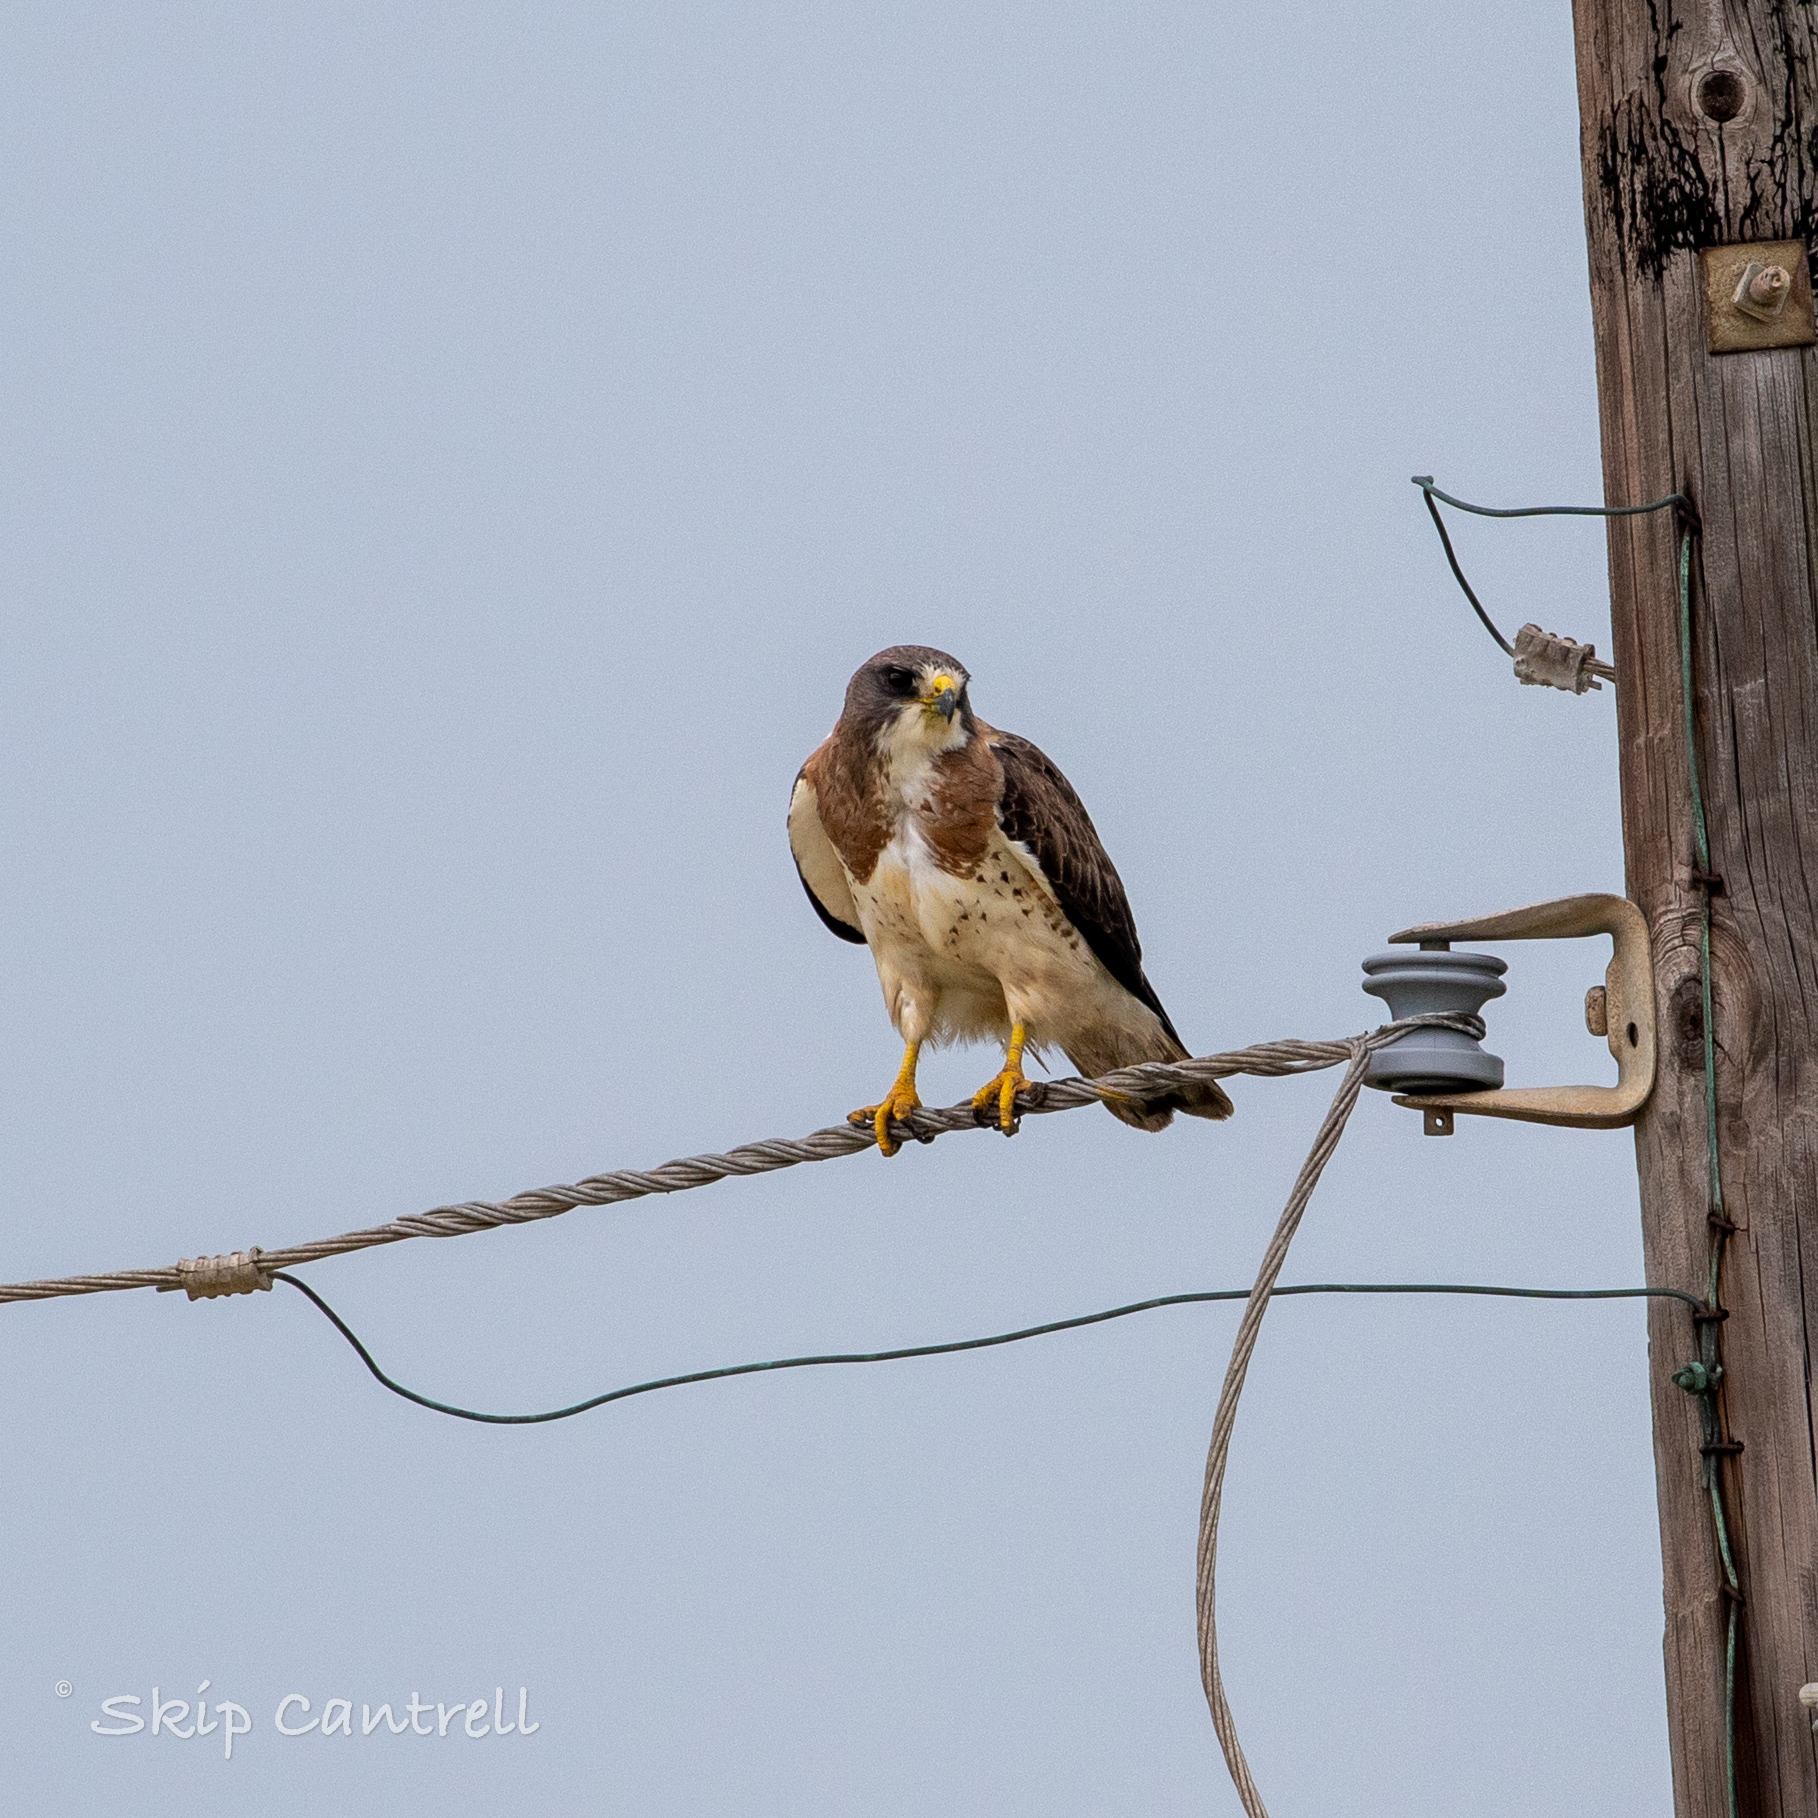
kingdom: Animalia
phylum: Chordata
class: Aves
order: Accipitriformes
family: Accipitridae
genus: Buteo
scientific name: Buteo swainsoni
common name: Swainson's hawk
